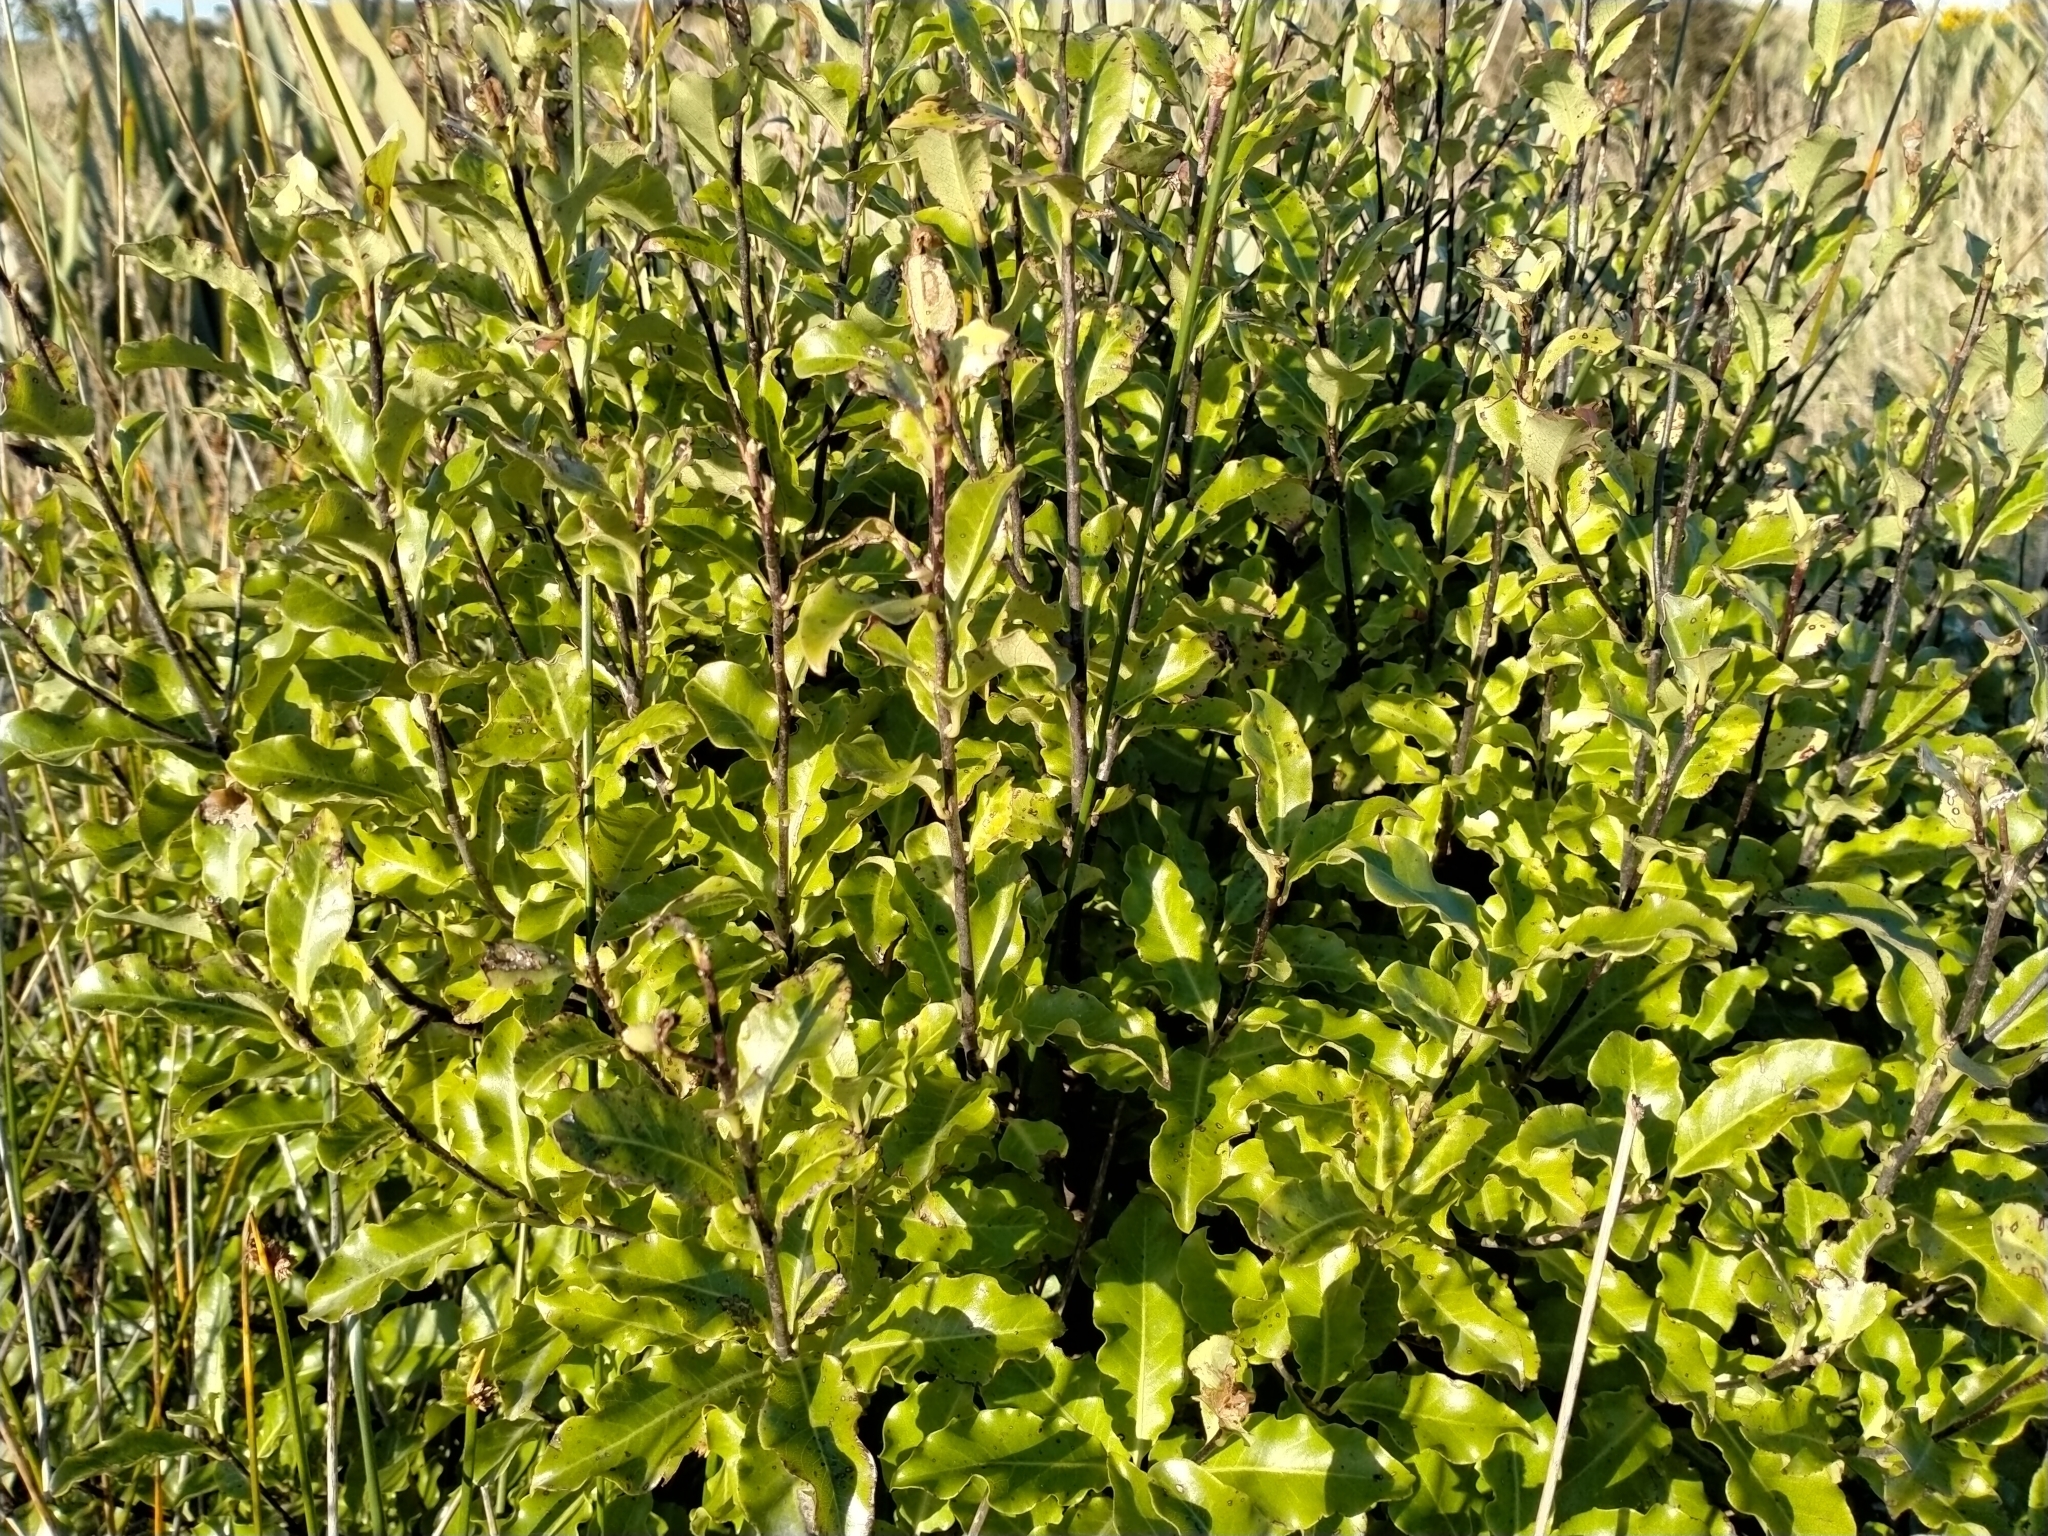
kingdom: Plantae
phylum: Tracheophyta
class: Magnoliopsida
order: Apiales
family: Pittosporaceae
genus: Pittosporum
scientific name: Pittosporum tenuifolium
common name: Kohuhu
